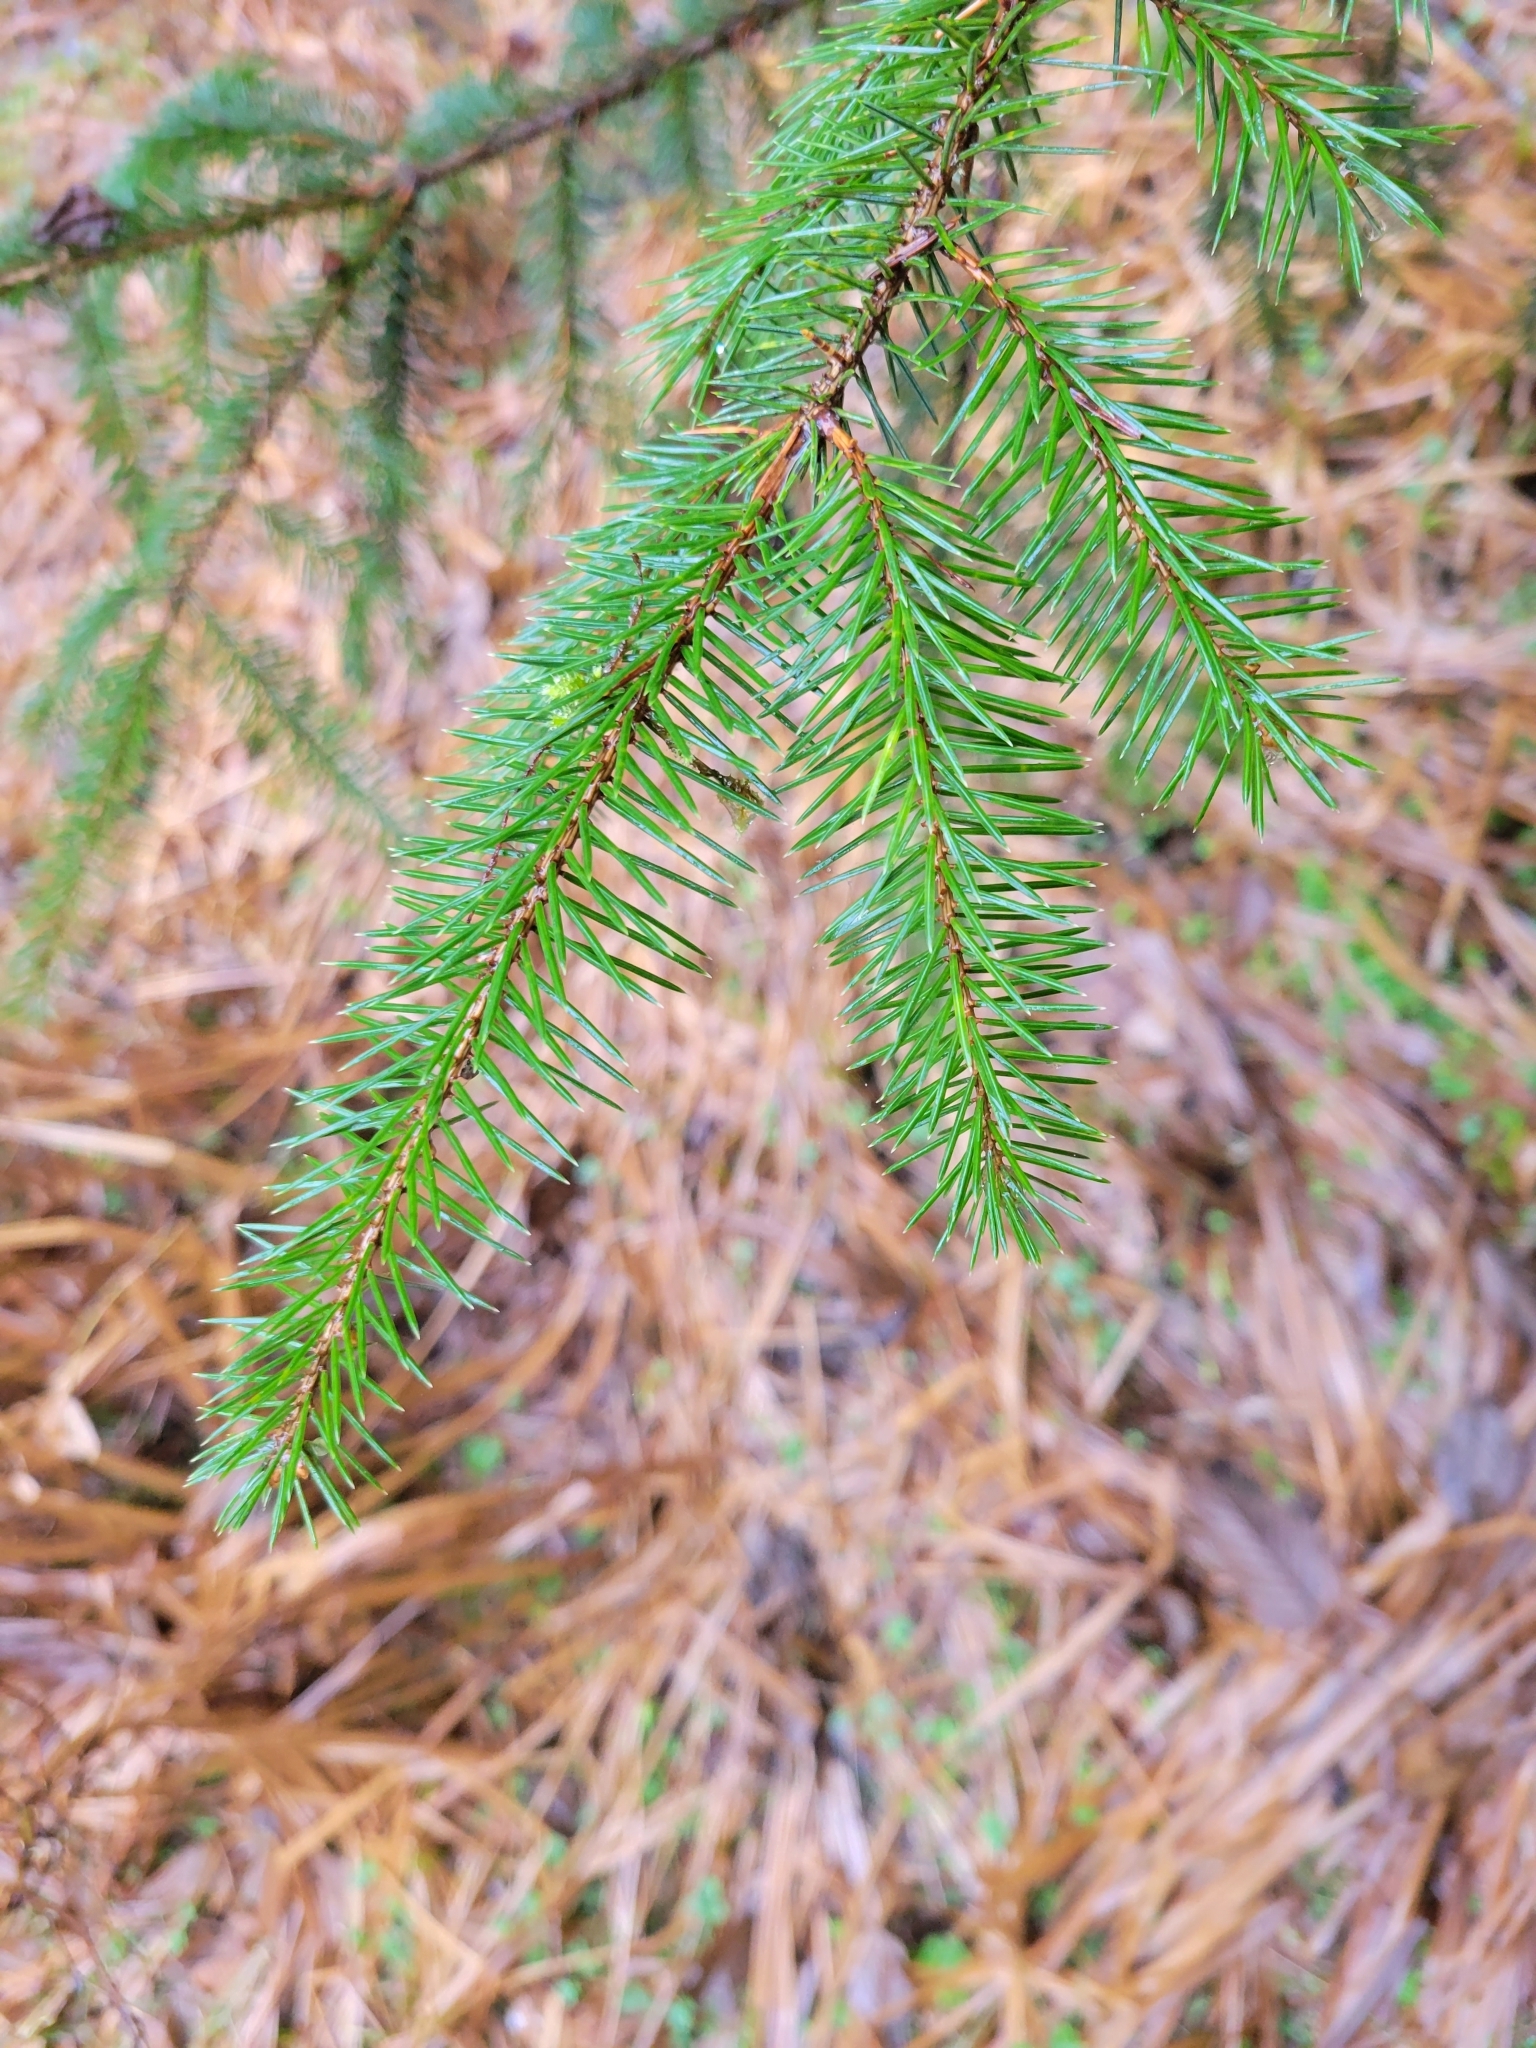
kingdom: Plantae
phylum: Tracheophyta
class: Pinopsida
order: Pinales
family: Pinaceae
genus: Picea
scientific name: Picea sitchensis
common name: Sitka spruce
